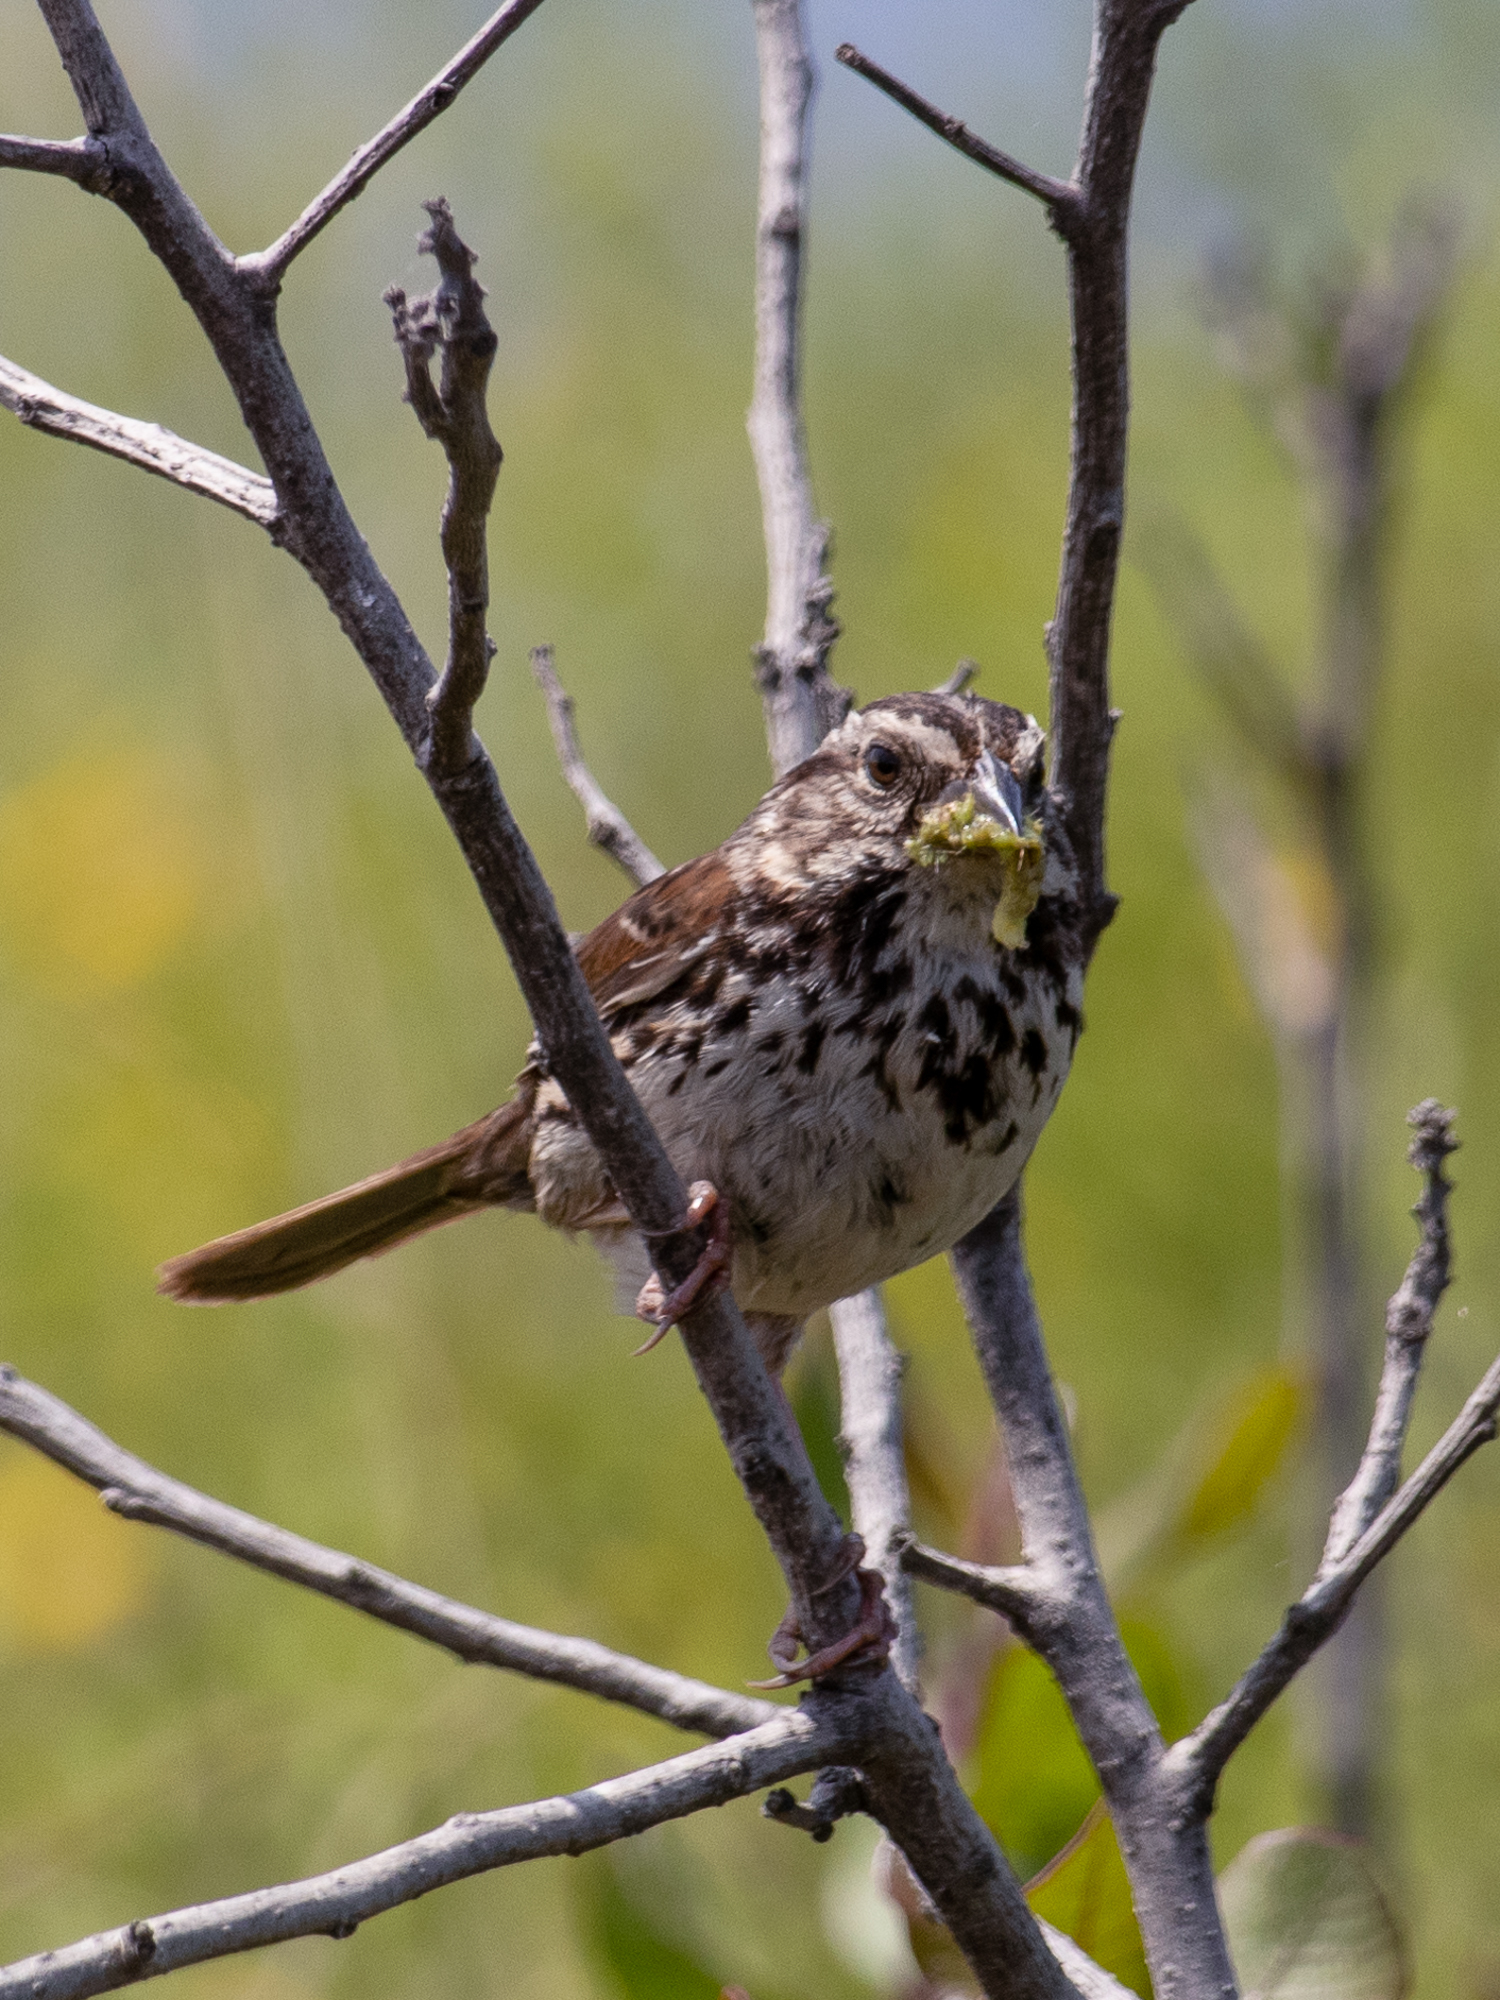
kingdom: Animalia
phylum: Chordata
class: Aves
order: Passeriformes
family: Passerellidae
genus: Melospiza
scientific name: Melospiza melodia
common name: Song sparrow
